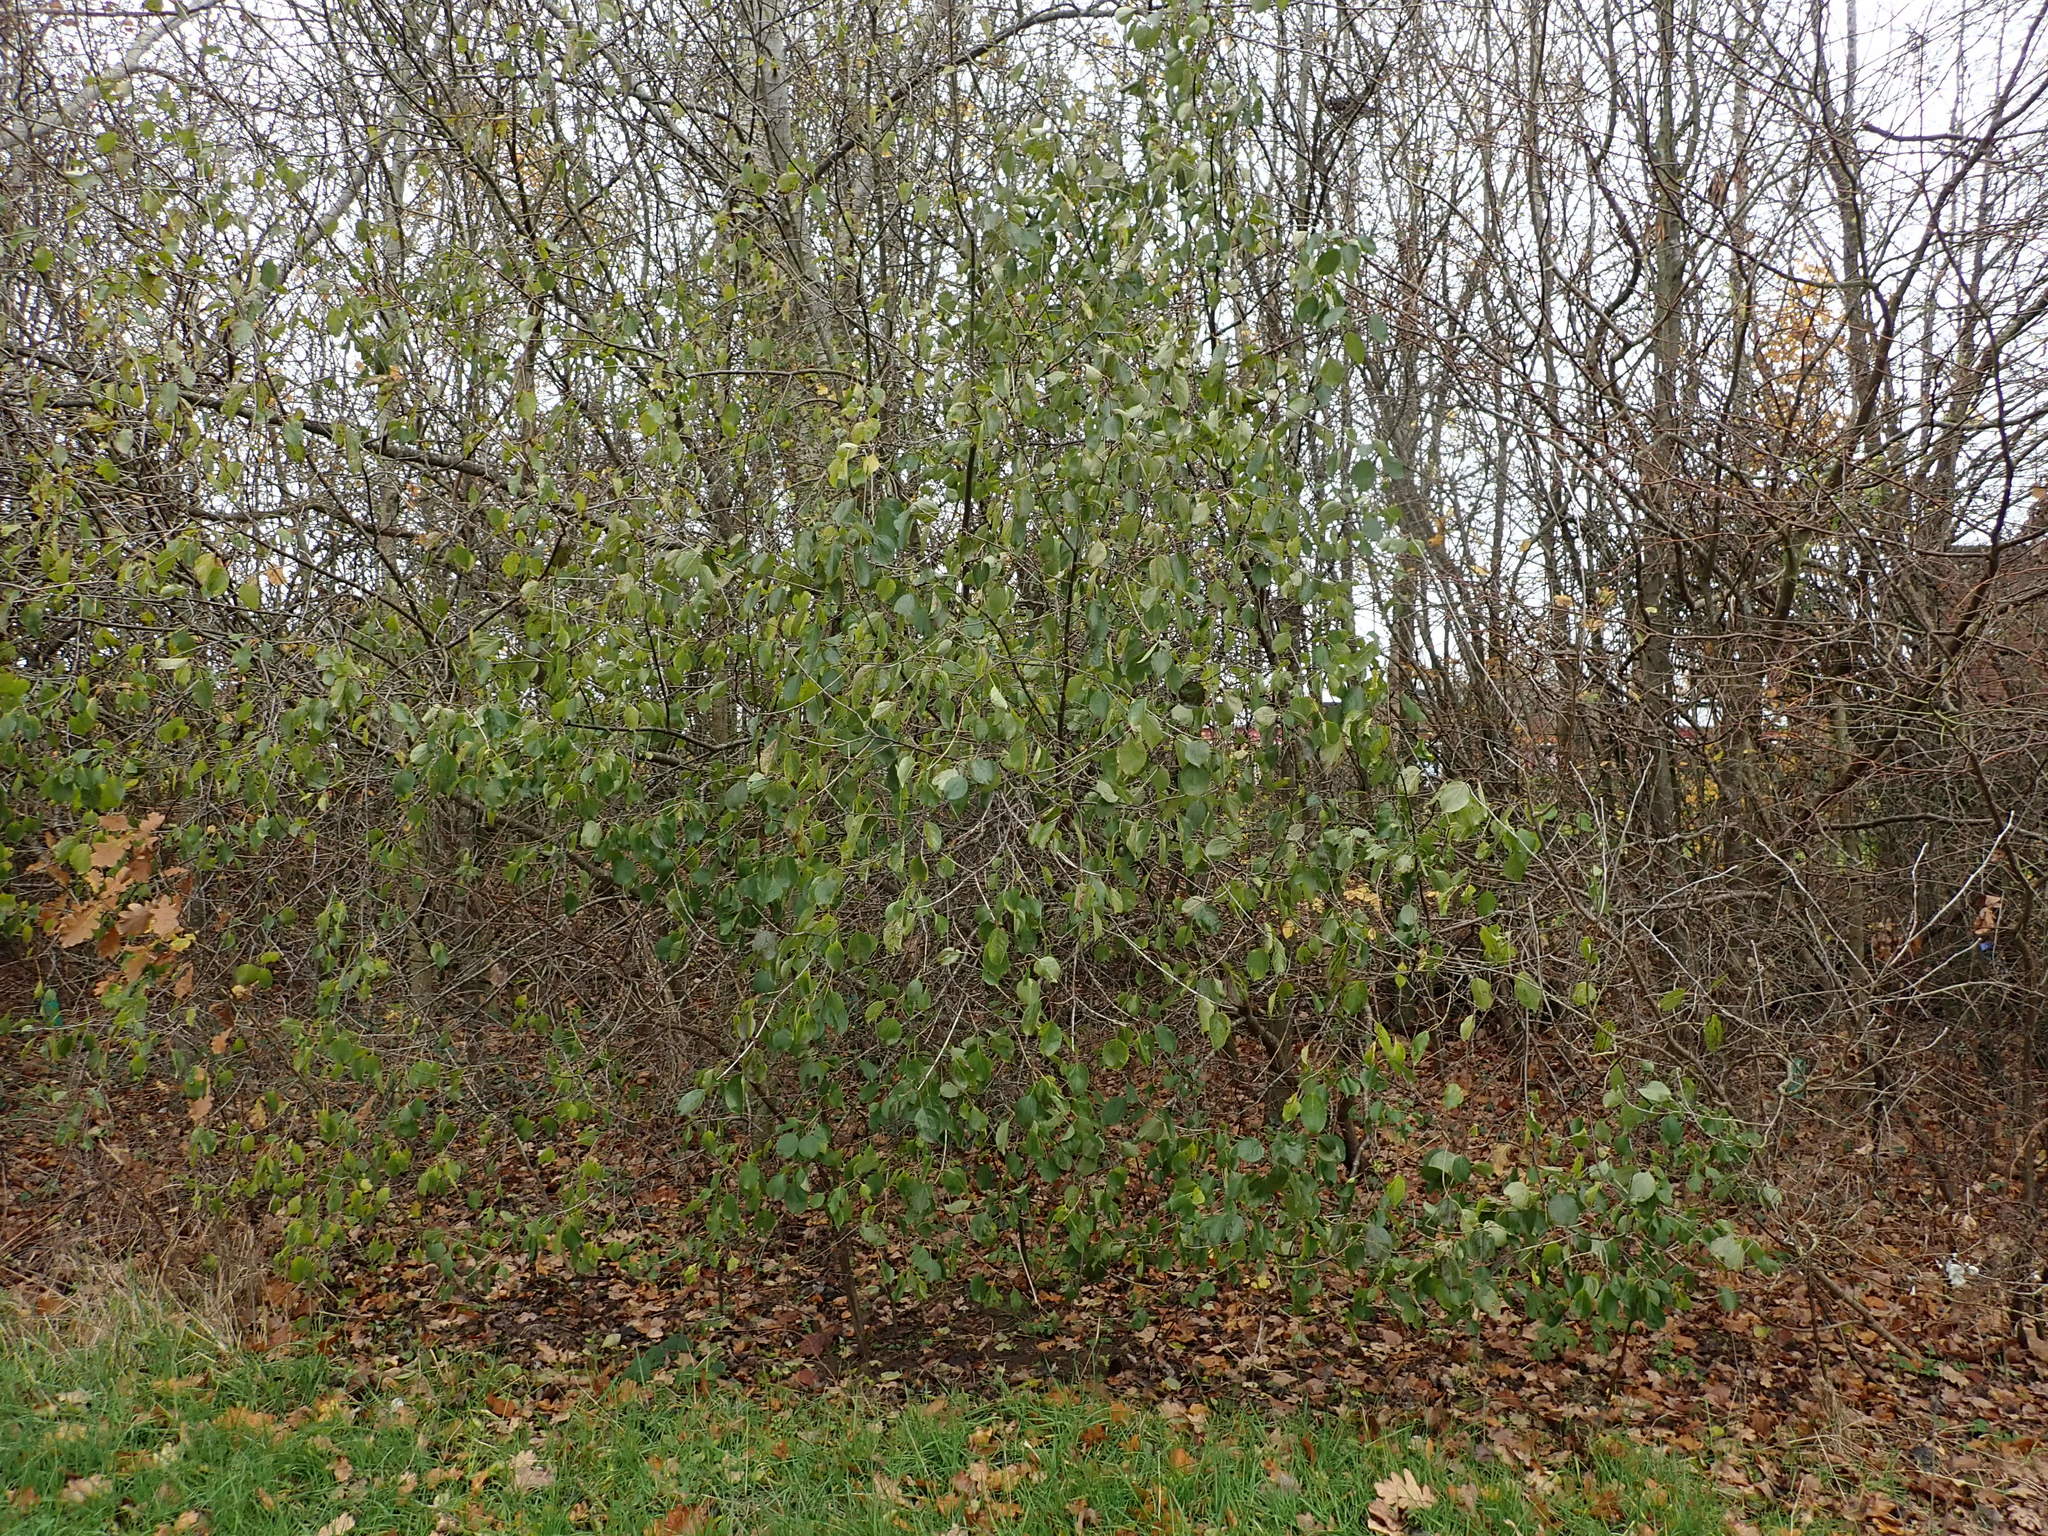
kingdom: Plantae
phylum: Tracheophyta
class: Magnoliopsida
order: Rosales
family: Rhamnaceae
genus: Rhamnus
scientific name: Rhamnus cathartica
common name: Common buckthorn
